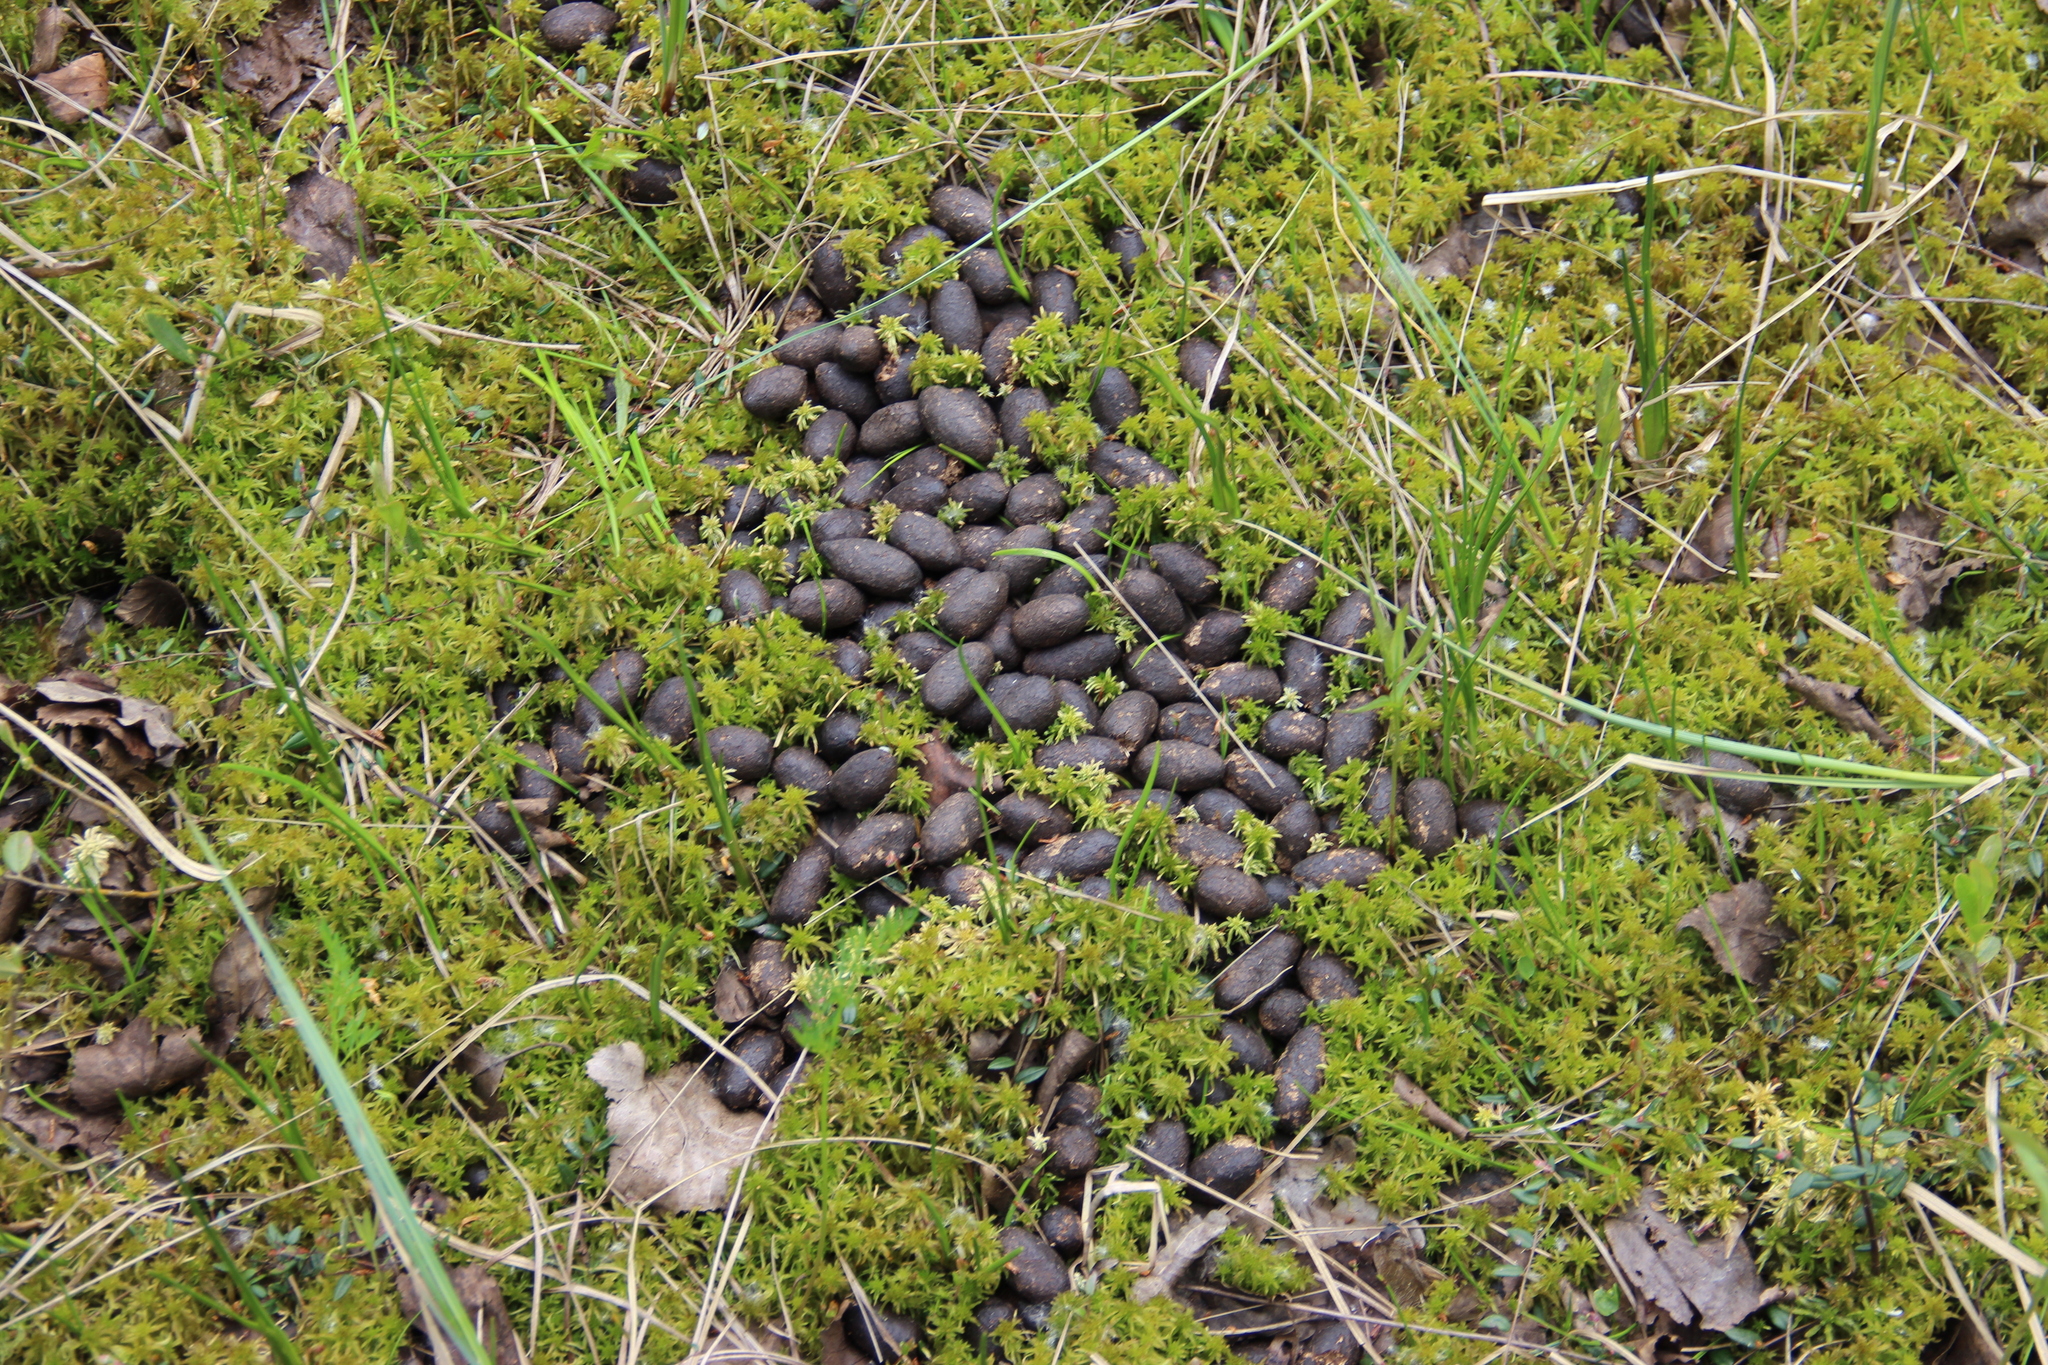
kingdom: Animalia
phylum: Chordata
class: Mammalia
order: Artiodactyla
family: Cervidae
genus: Alces
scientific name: Alces alces
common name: Moose
